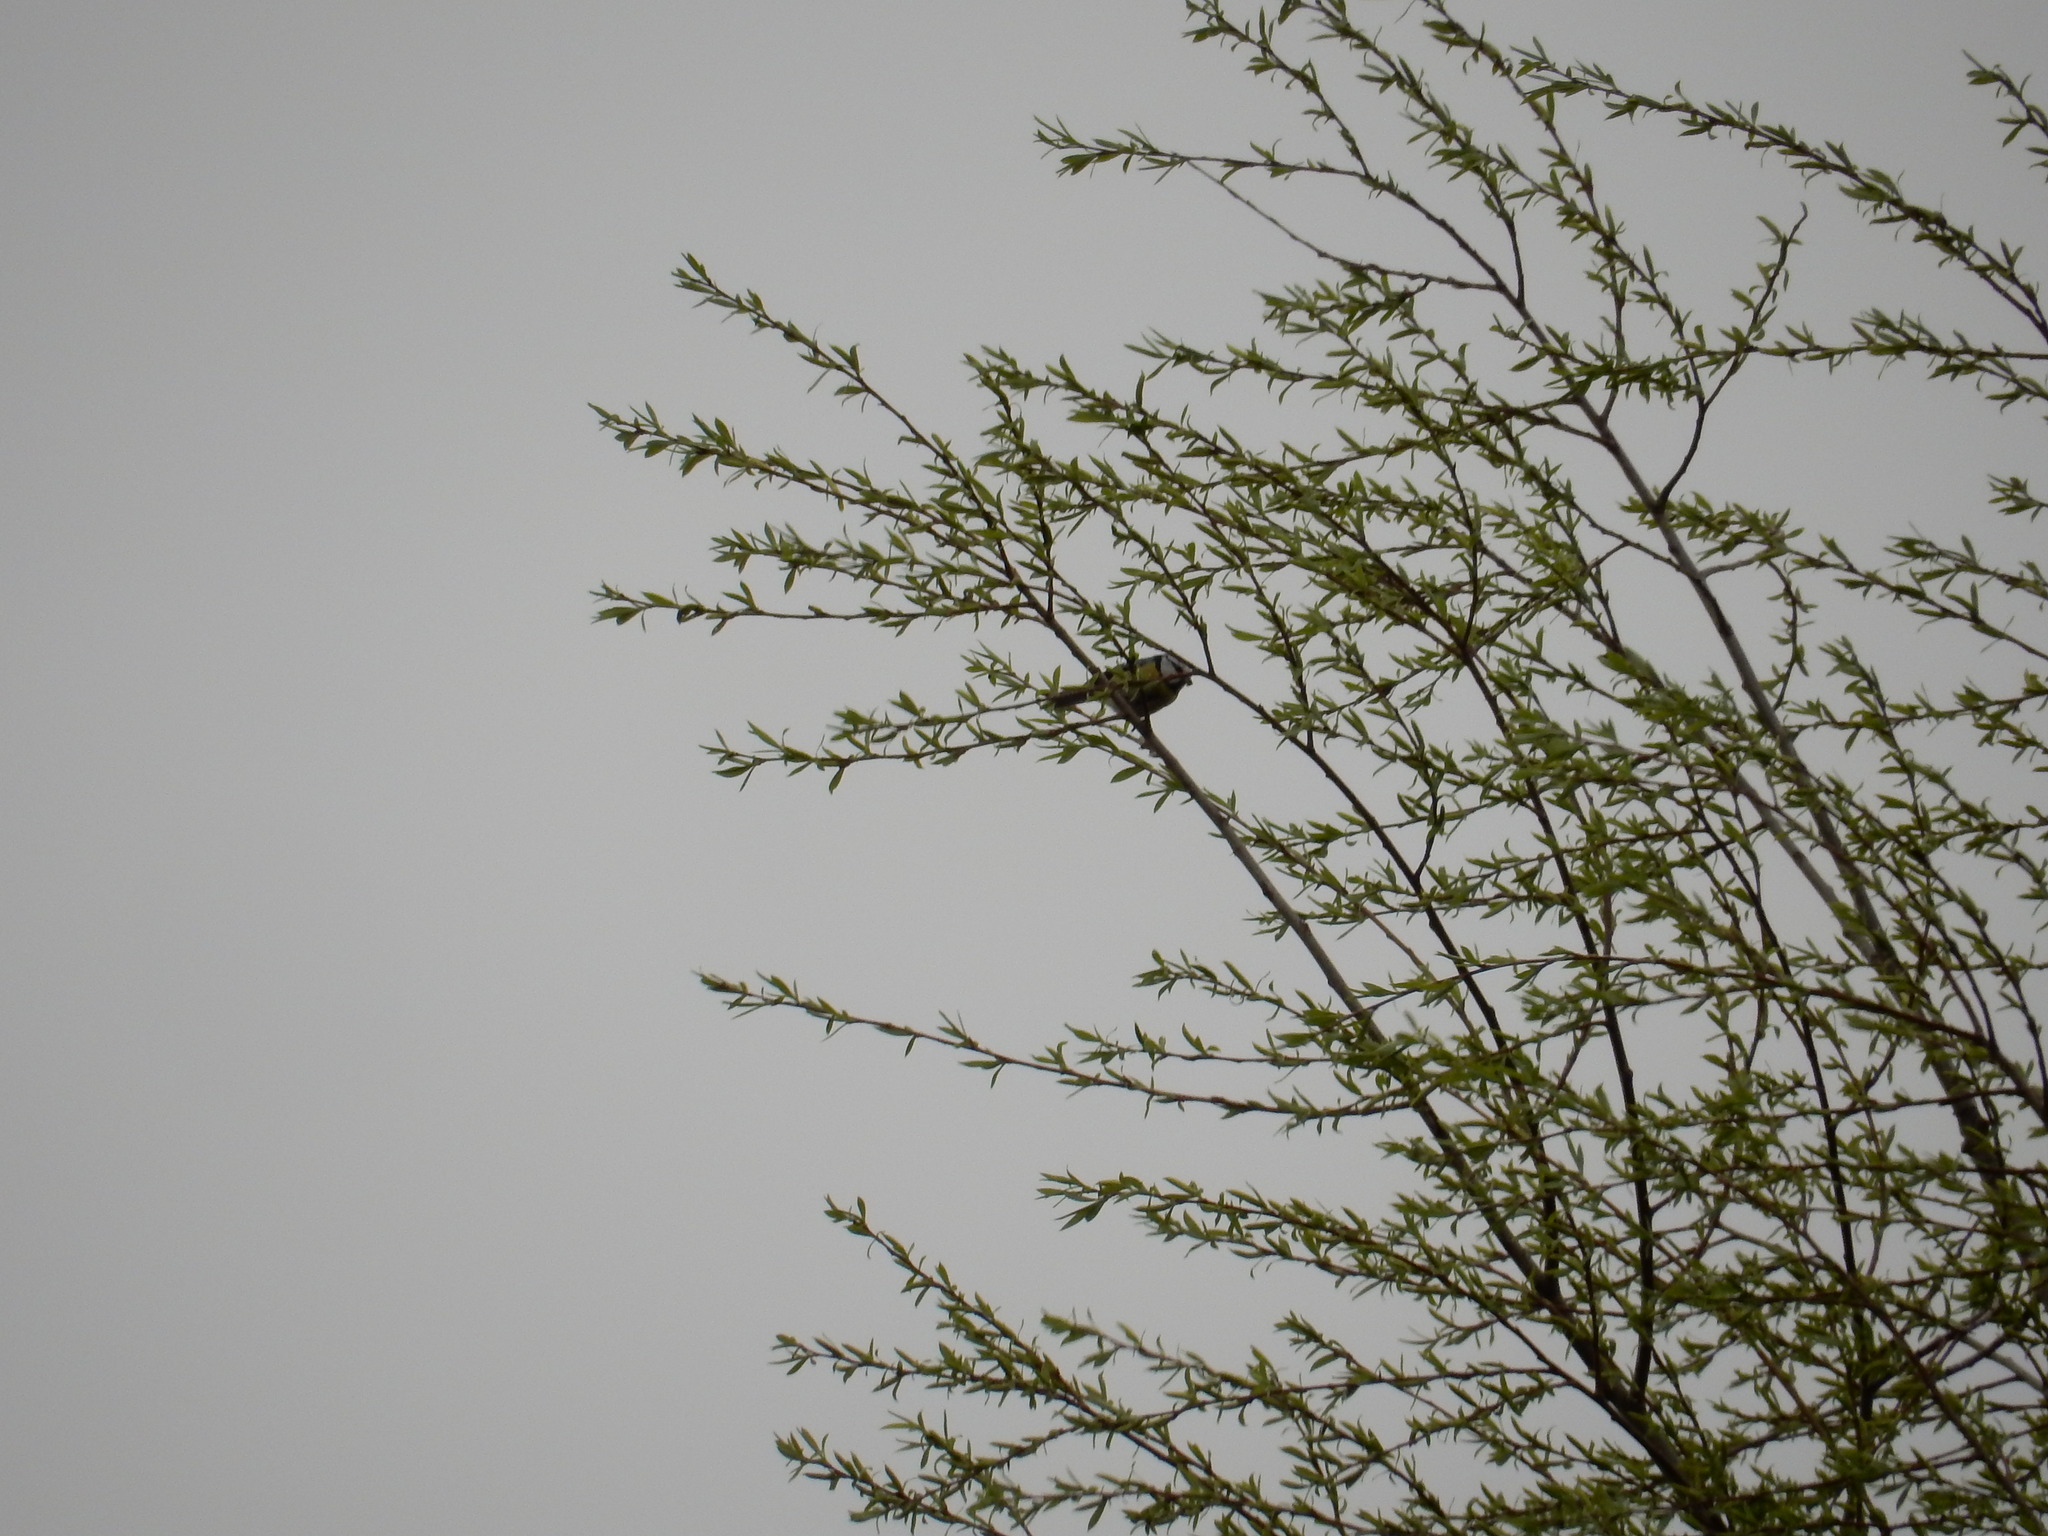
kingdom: Animalia
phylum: Chordata
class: Aves
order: Passeriformes
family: Paridae
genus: Cyanistes
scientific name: Cyanistes caeruleus
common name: Eurasian blue tit
